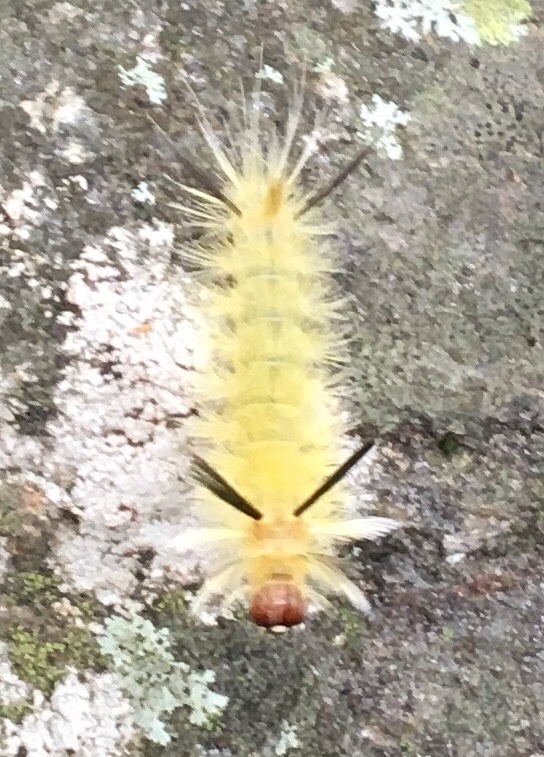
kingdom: Animalia
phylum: Arthropoda
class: Insecta
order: Lepidoptera
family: Erebidae
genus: Halysidota
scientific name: Halysidota tessellaris
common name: Banded tussock moth
